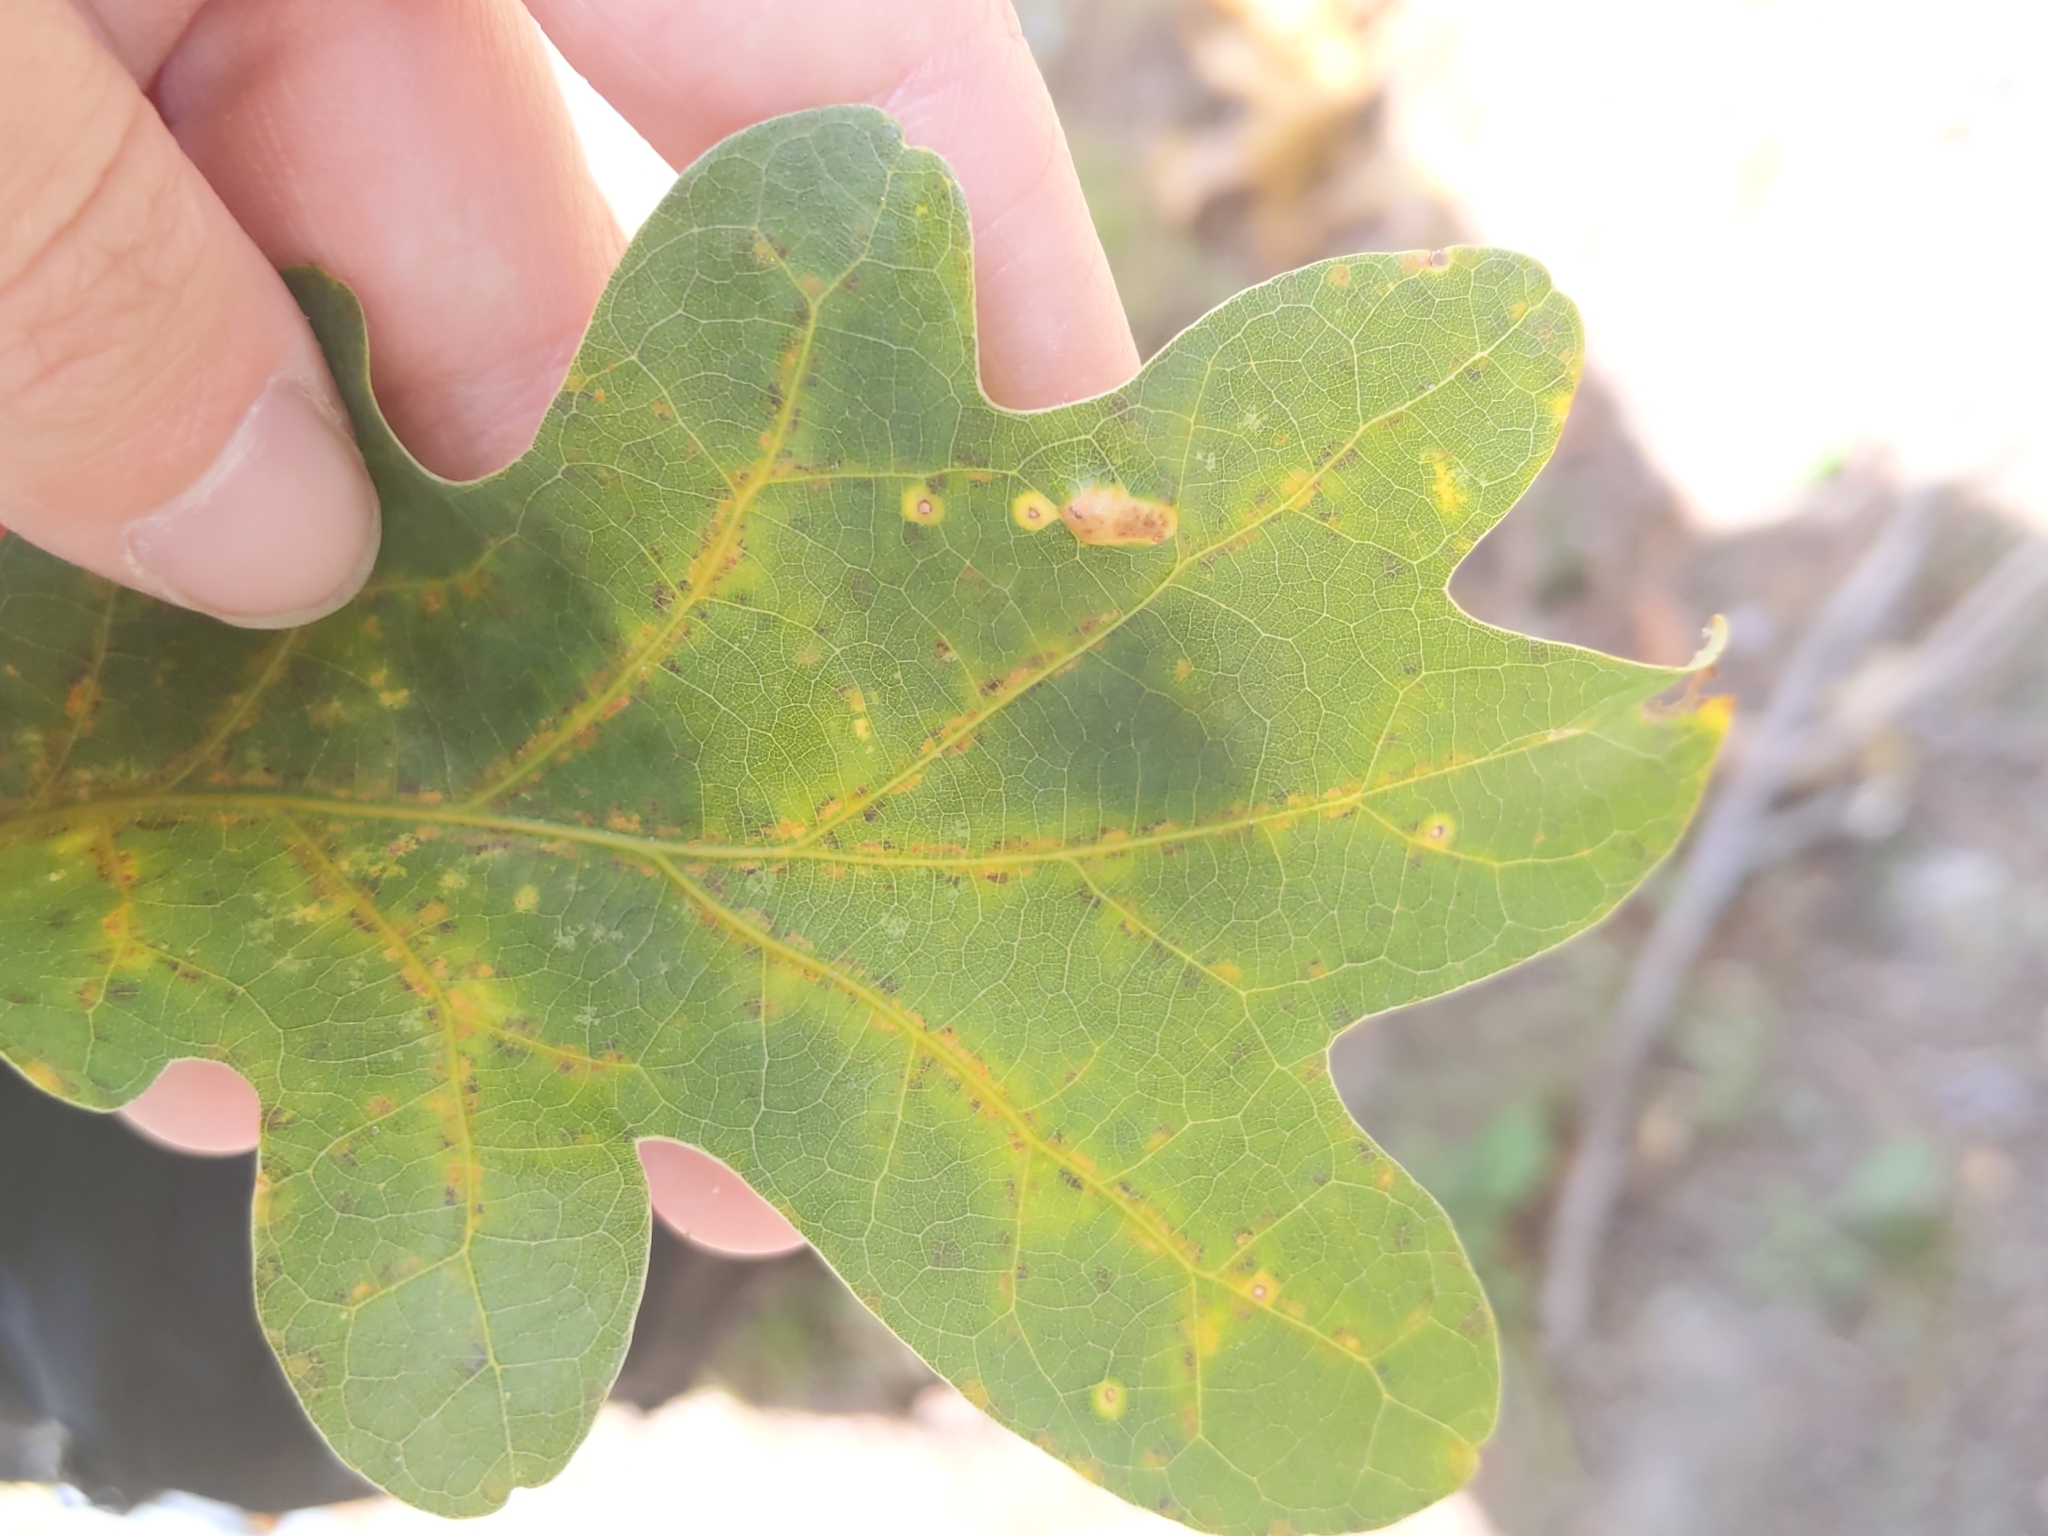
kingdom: Animalia
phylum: Arthropoda
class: Arachnida
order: Trombidiformes
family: Eriophyidae
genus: Aceria
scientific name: Aceria
